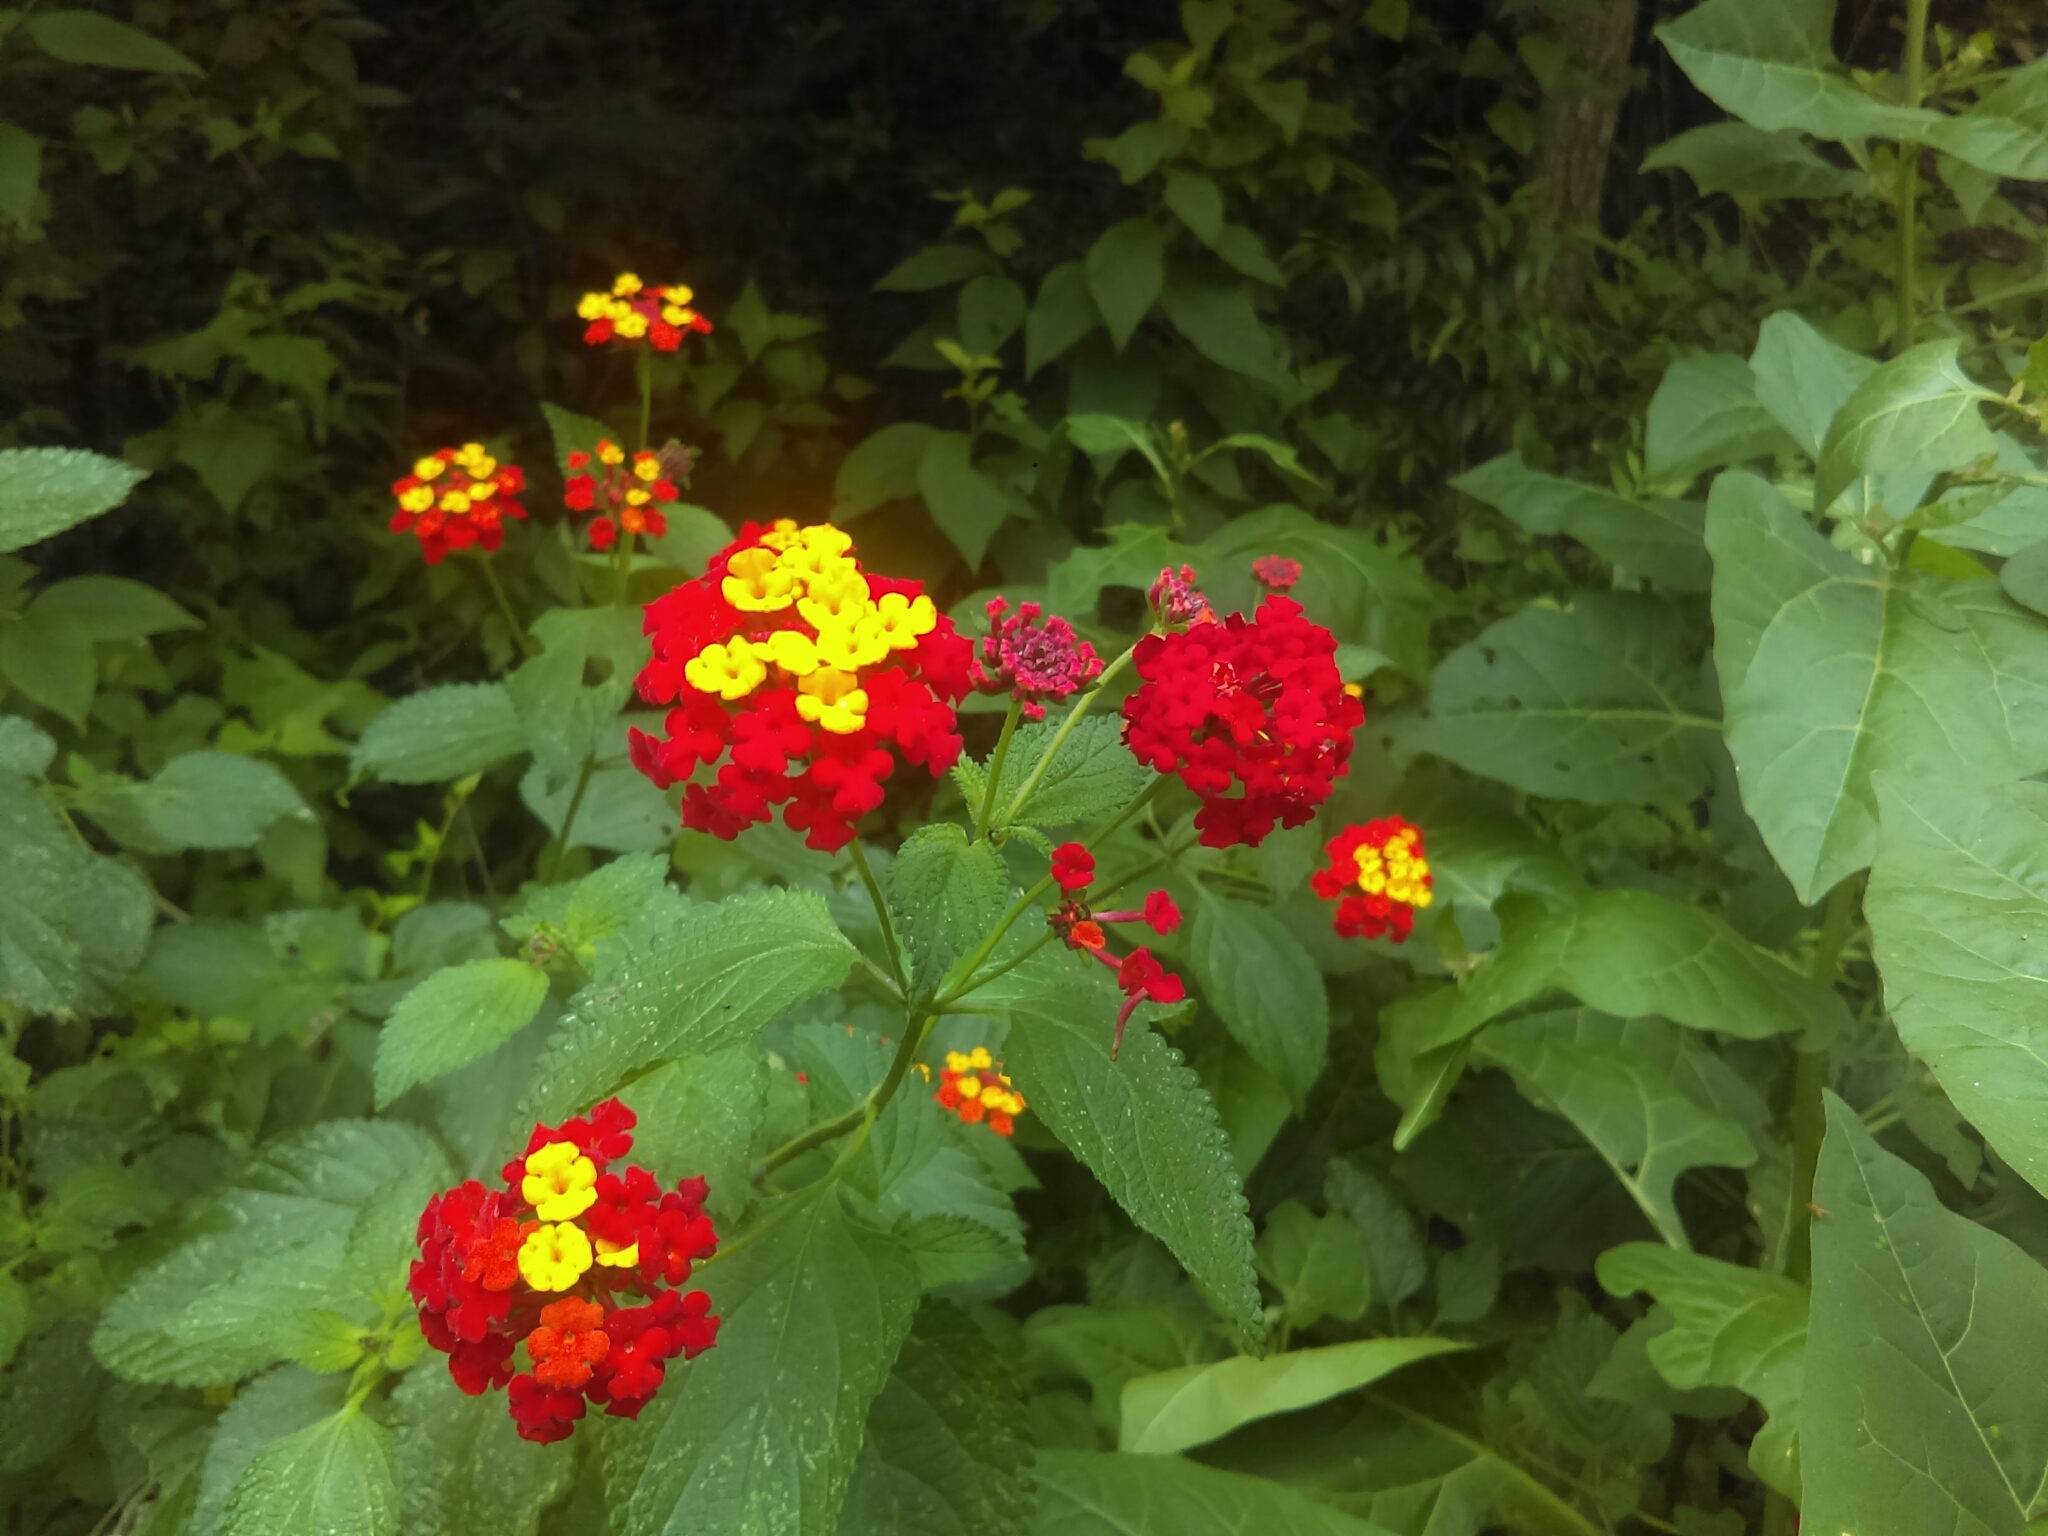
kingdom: Plantae
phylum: Tracheophyta
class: Magnoliopsida
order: Lamiales
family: Verbenaceae
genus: Lantana
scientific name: Lantana camara
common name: Lantana
